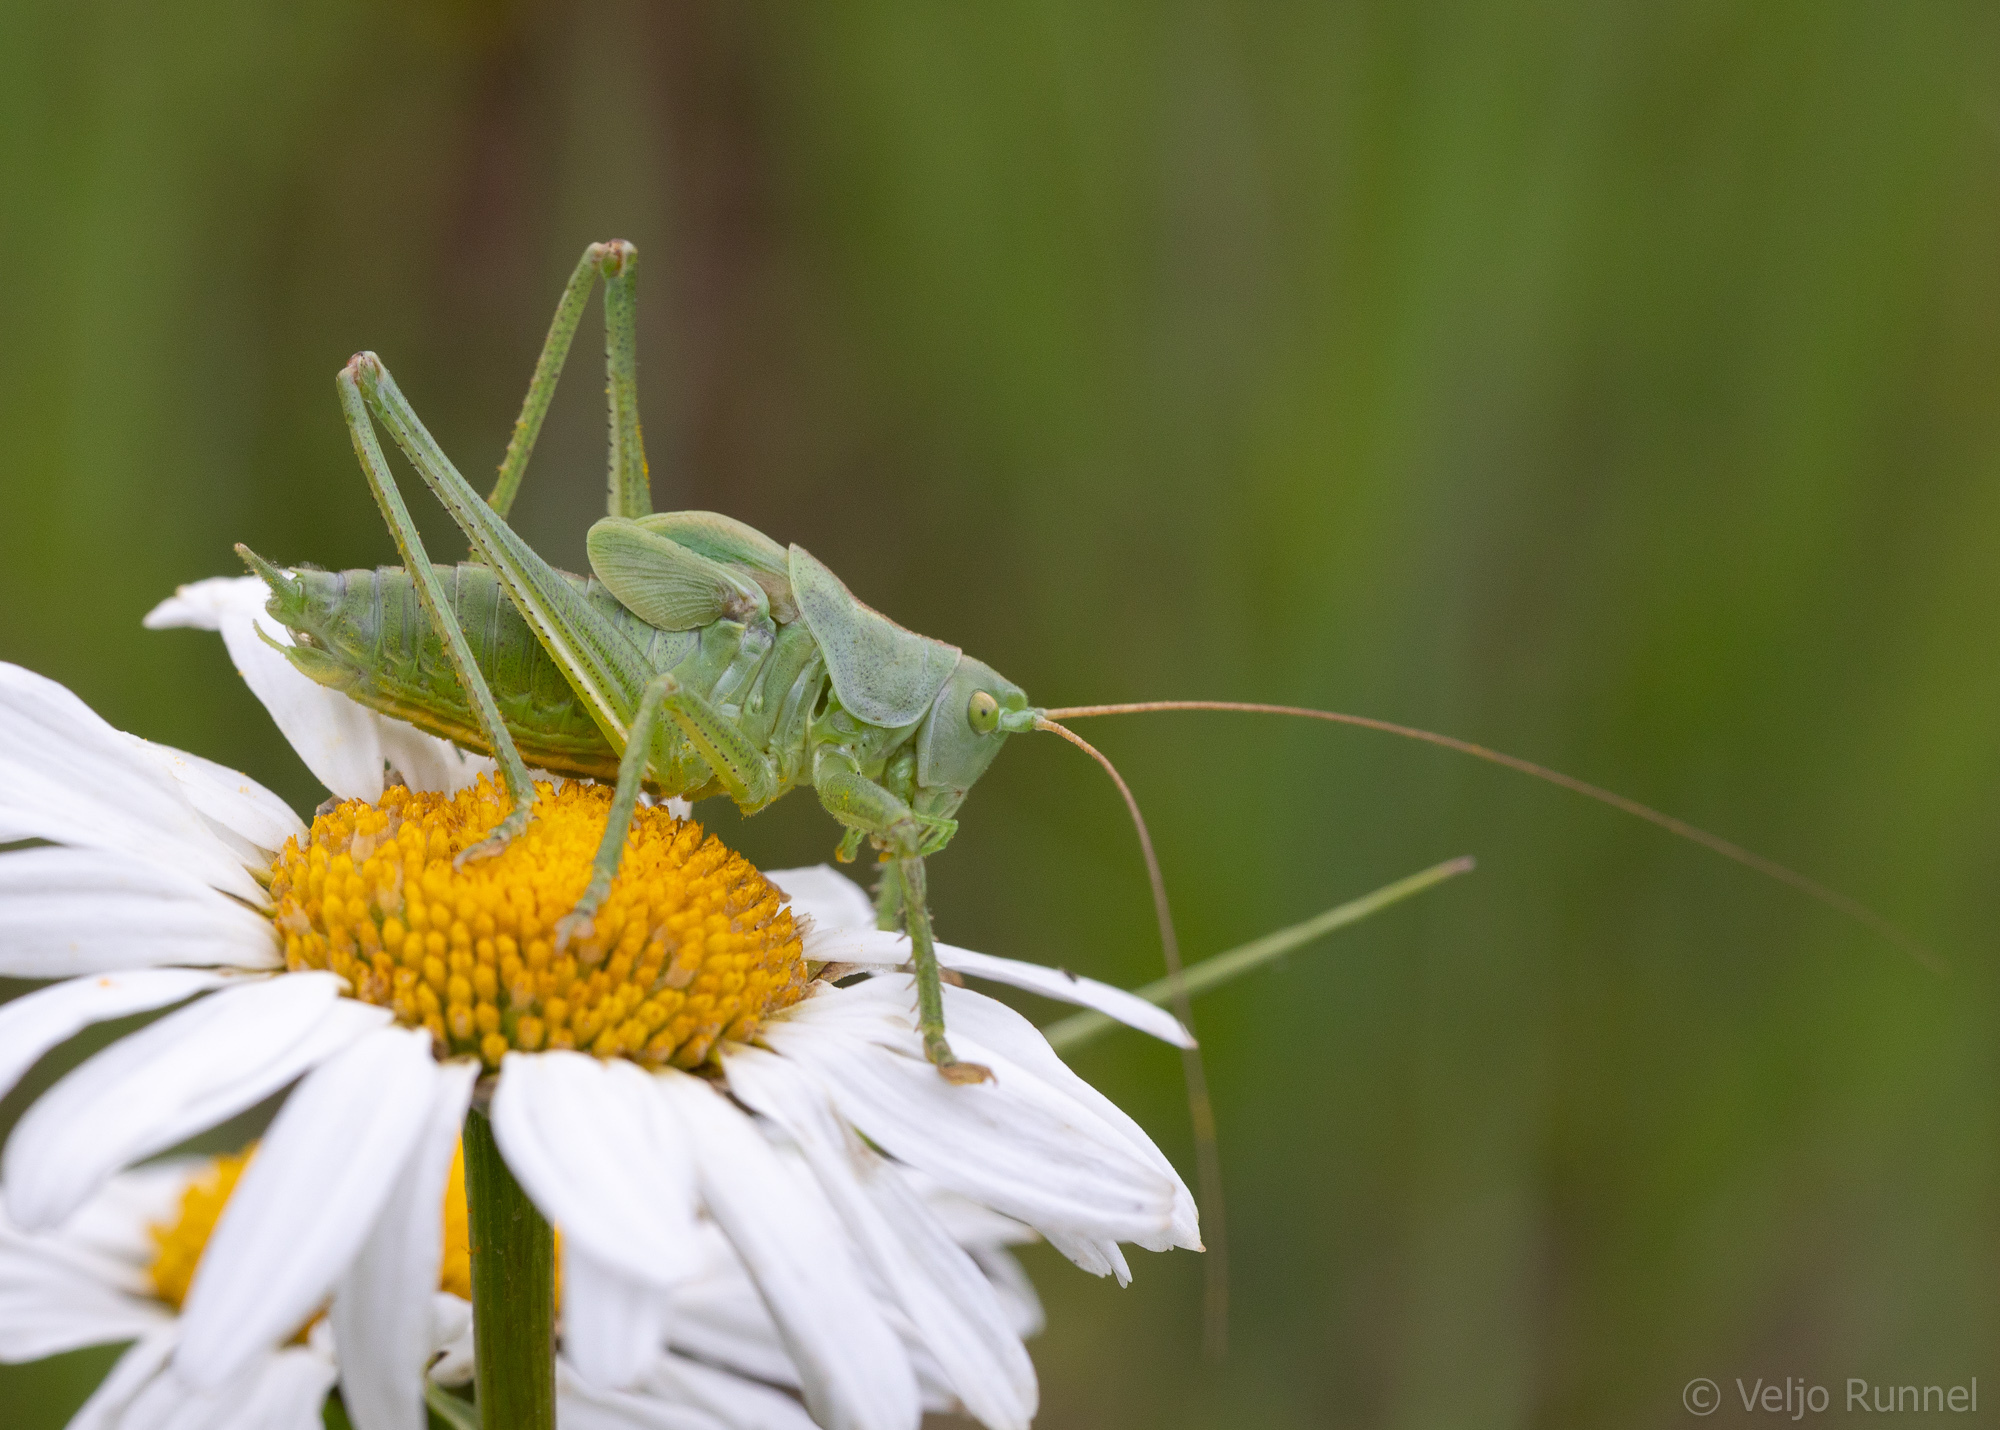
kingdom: Animalia
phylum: Arthropoda
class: Insecta
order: Orthoptera
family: Tettigoniidae
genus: Tettigonia
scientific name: Tettigonia cantans
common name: Upland green bush-cricket
